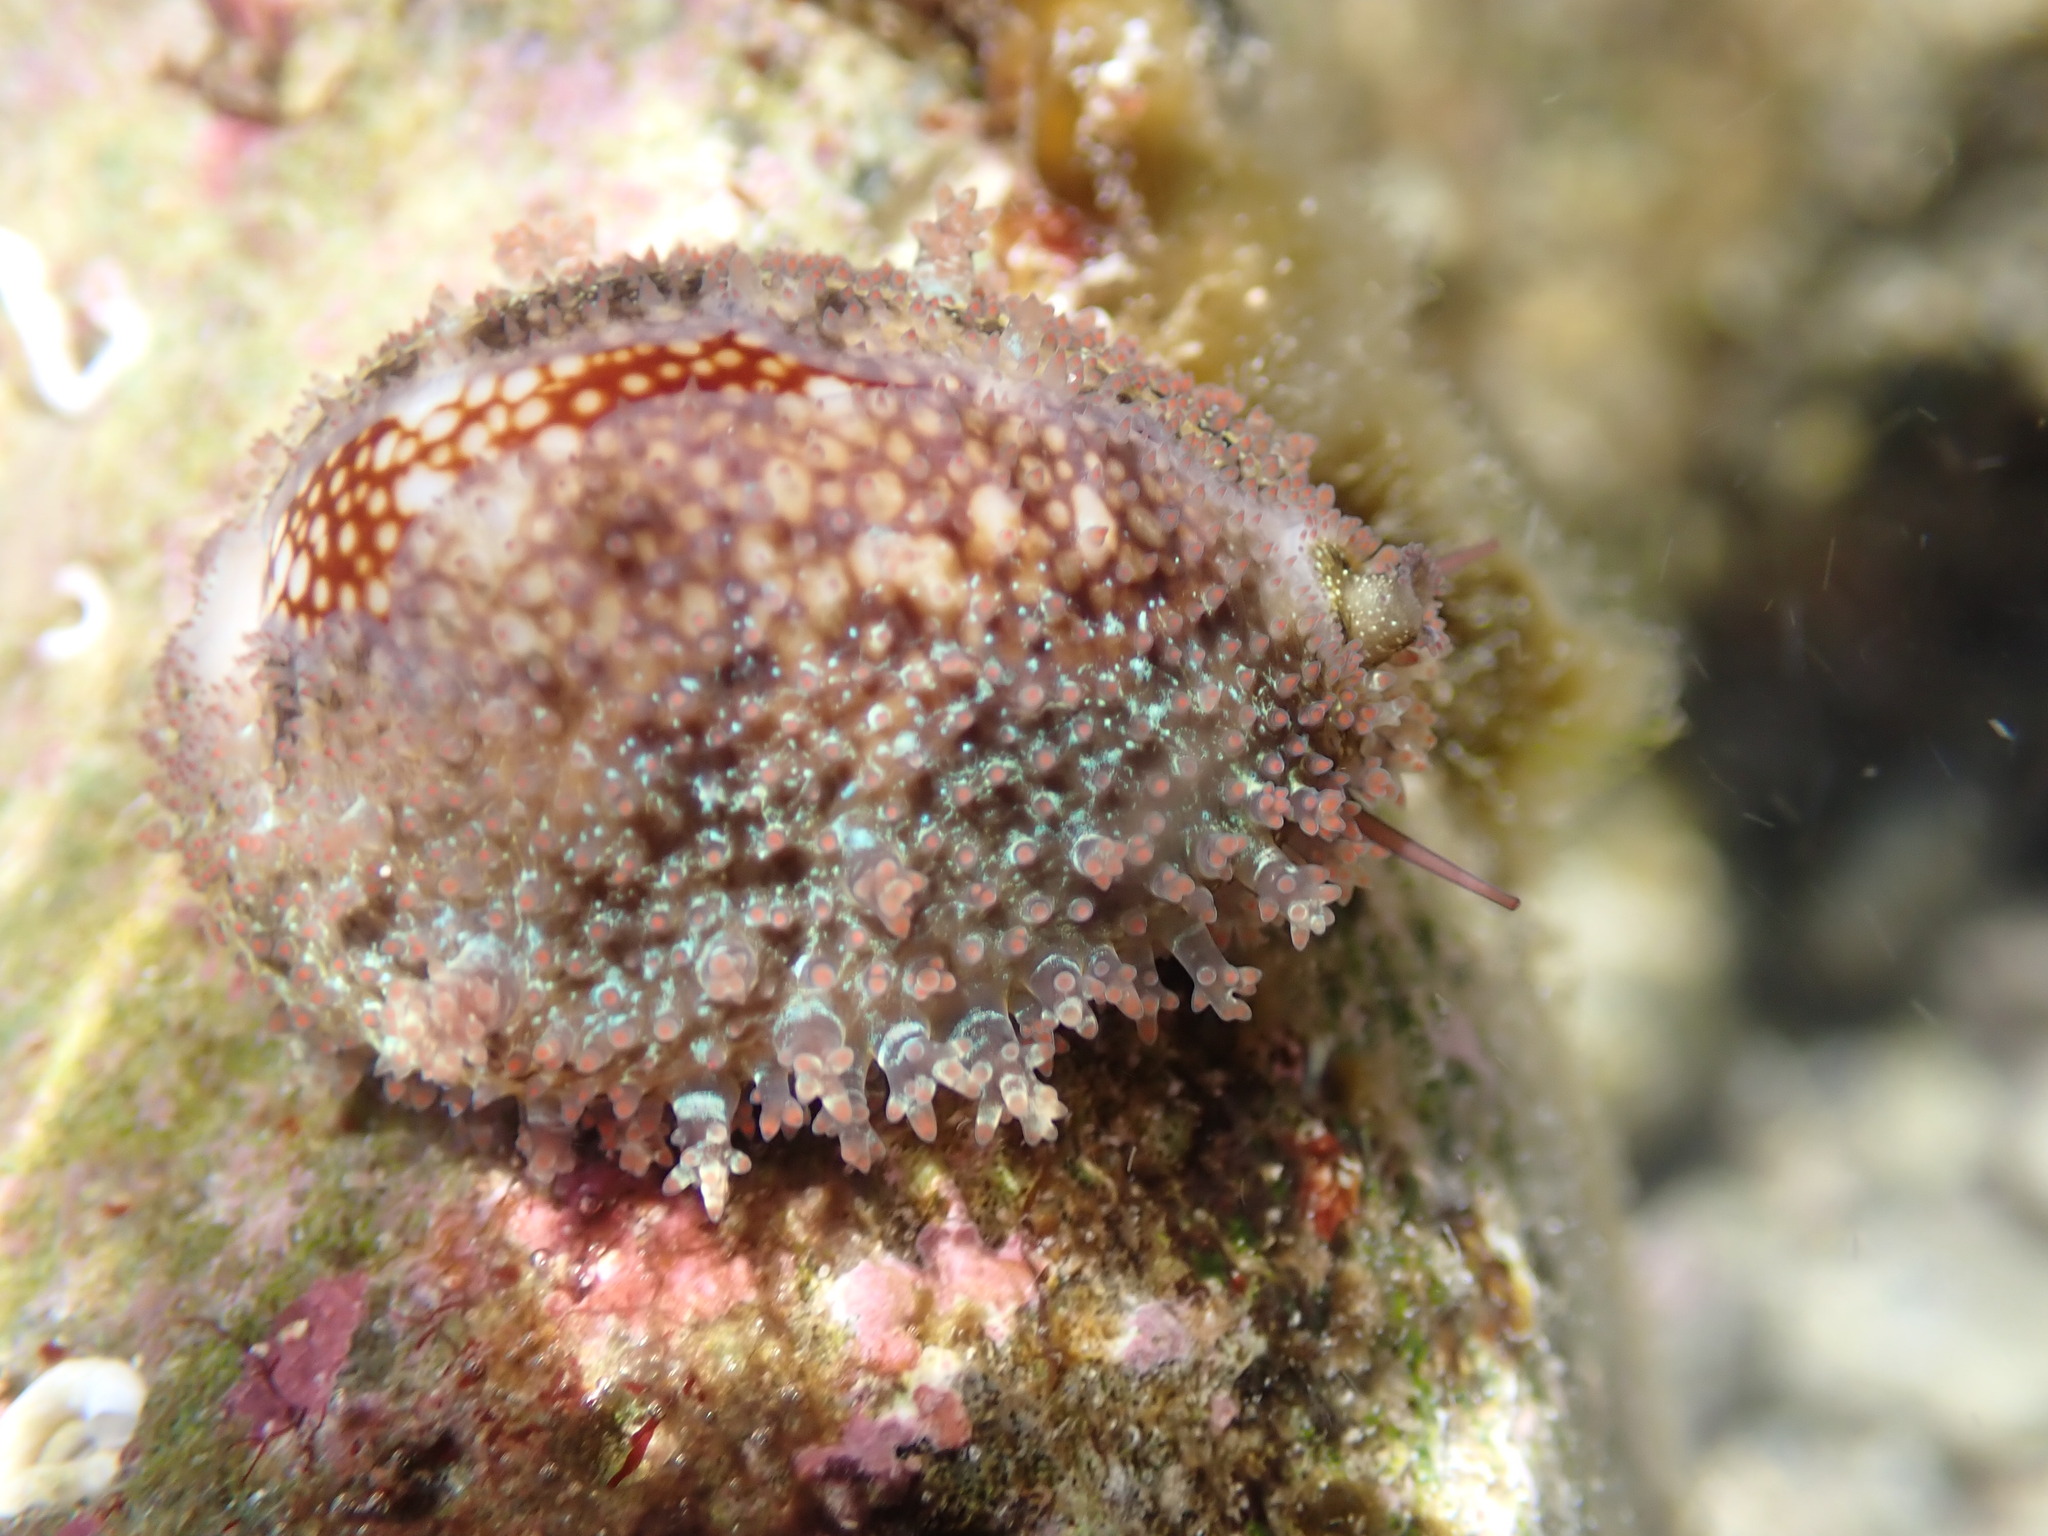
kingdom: Animalia
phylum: Mollusca
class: Gastropoda
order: Littorinimorpha
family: Cypraeidae
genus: Monetaria
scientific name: Monetaria caputophidii
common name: Snake's head cowry
